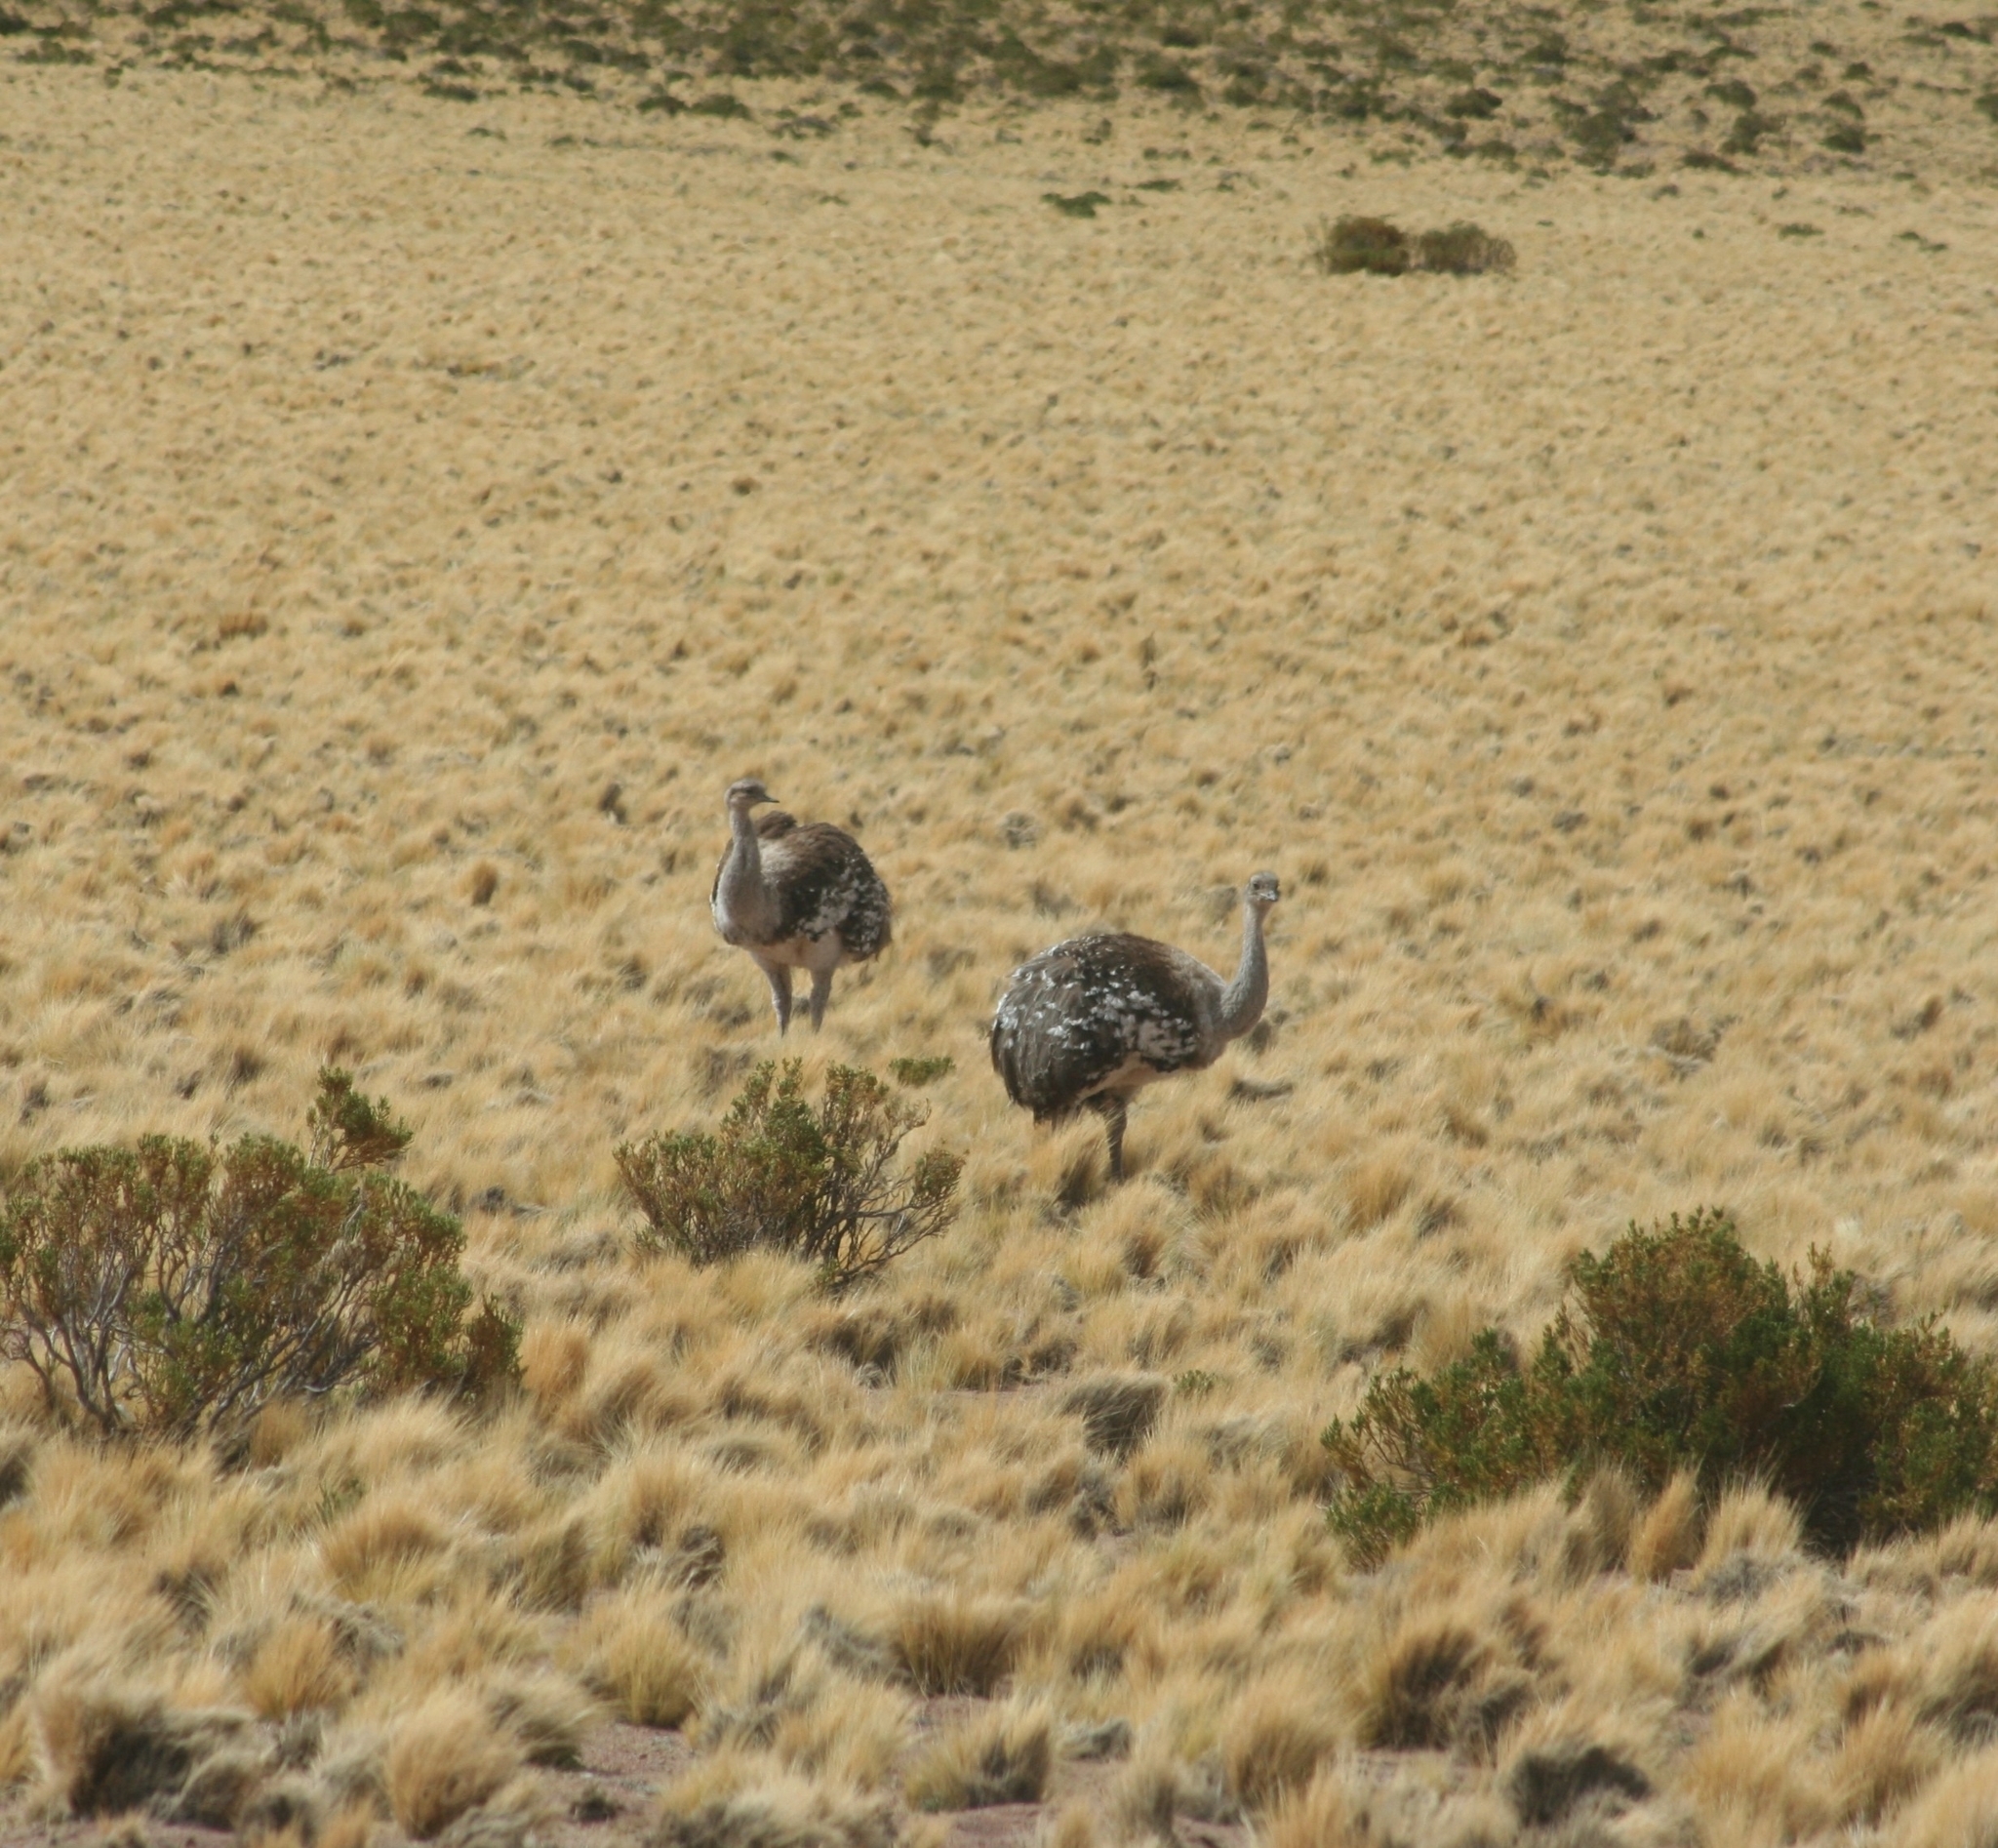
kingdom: Animalia
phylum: Chordata
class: Aves
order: Rheiformes
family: Rheidae
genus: Rhea
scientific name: Rhea pennata
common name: Lesser rhea
